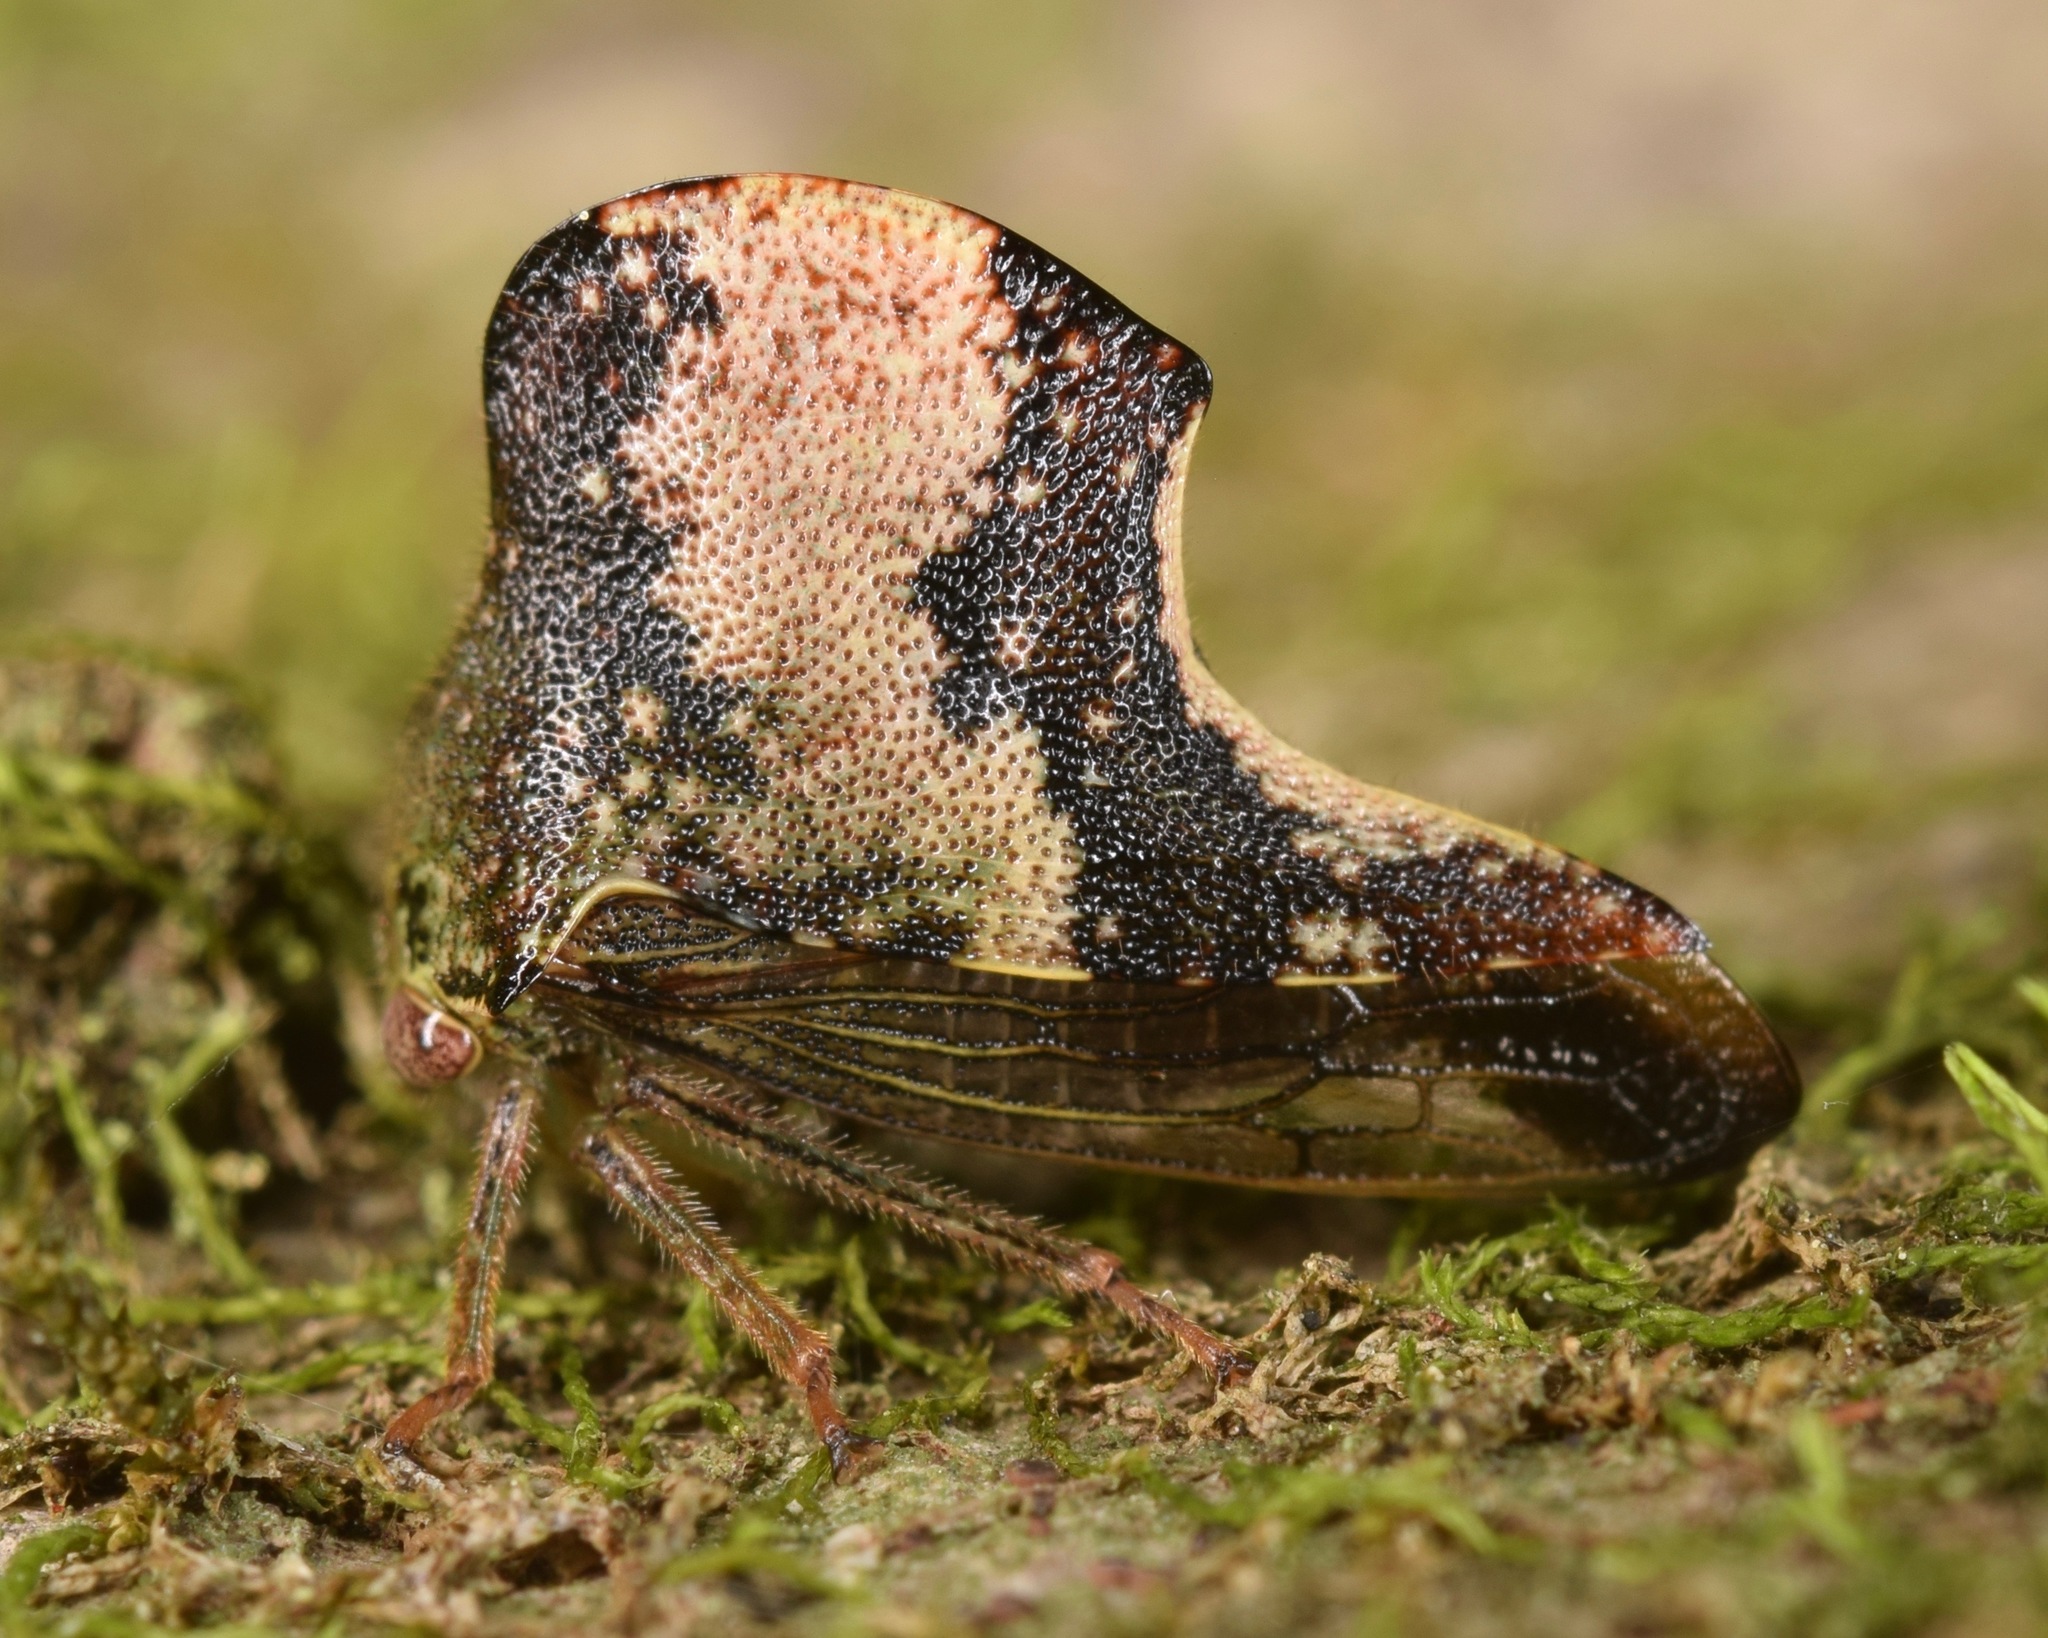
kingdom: Animalia
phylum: Arthropoda
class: Insecta
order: Hemiptera
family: Membracidae
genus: Telamona
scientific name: Telamona tristis
